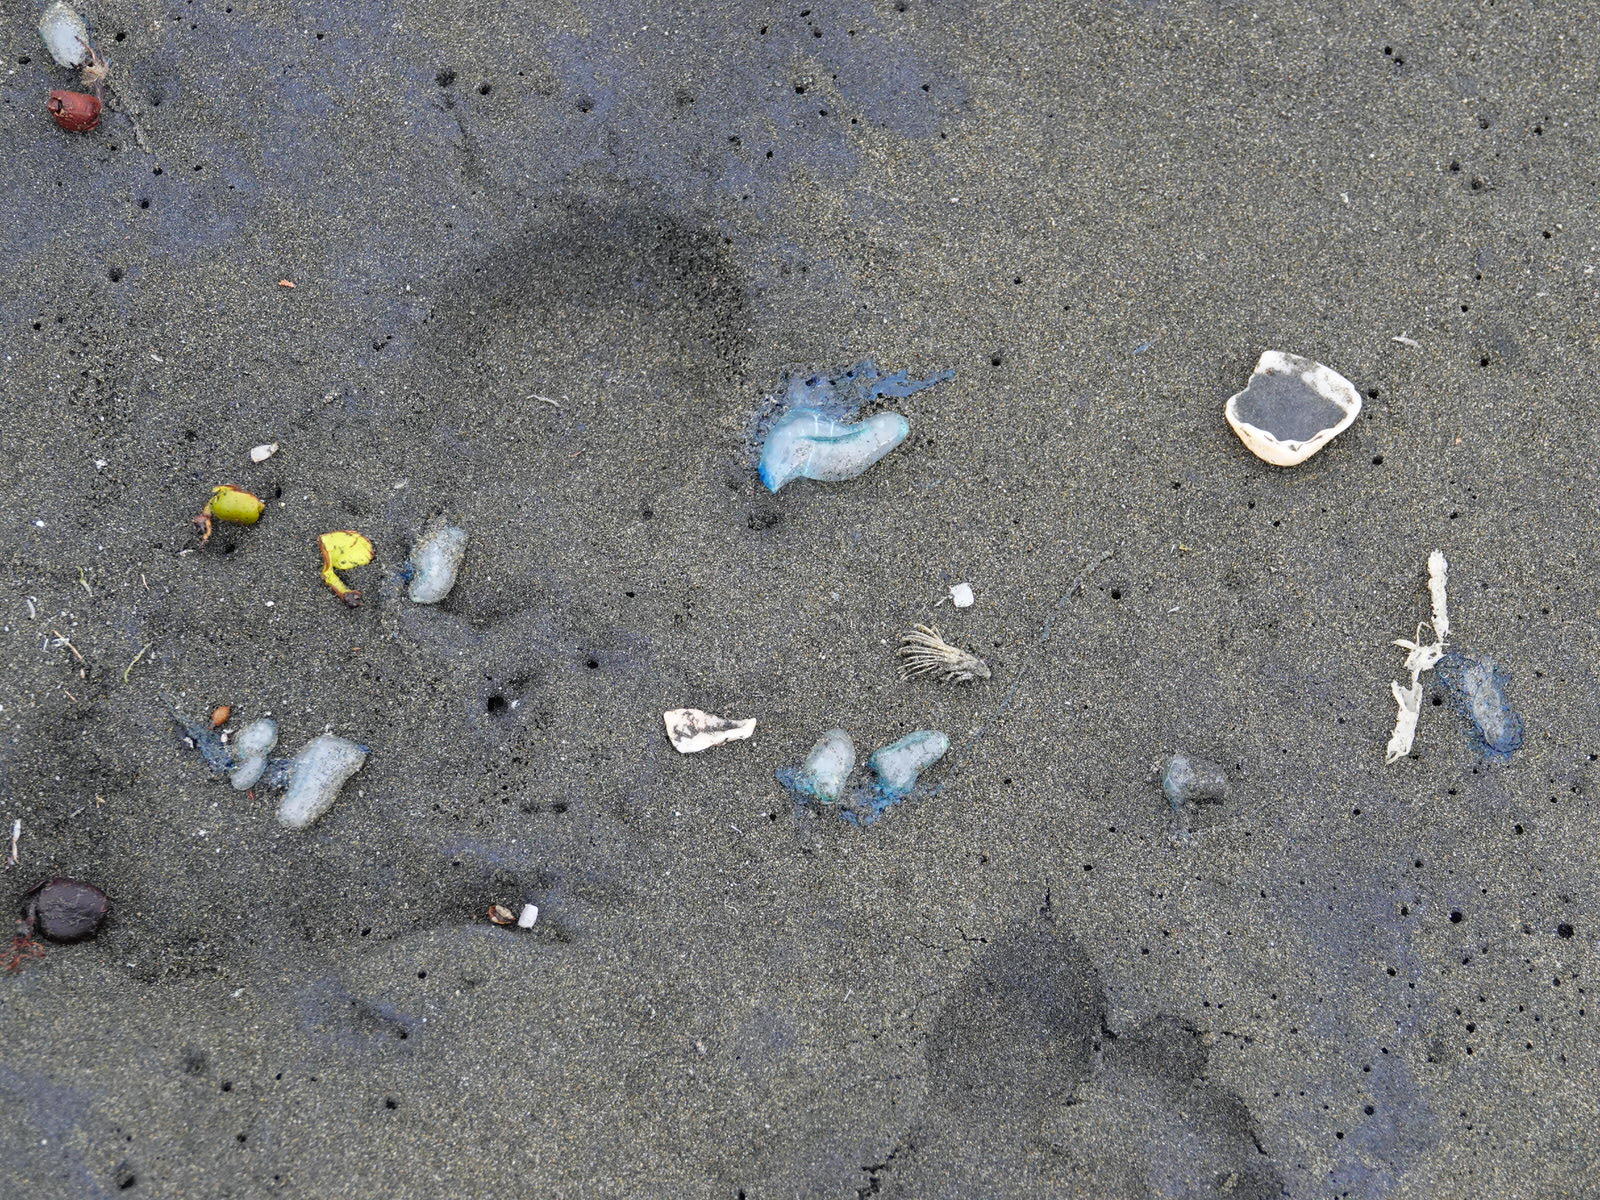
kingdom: Animalia
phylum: Cnidaria
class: Hydrozoa
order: Siphonophorae
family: Physaliidae
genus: Physalia
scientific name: Physalia physalis
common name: Portuguese man-of-war
